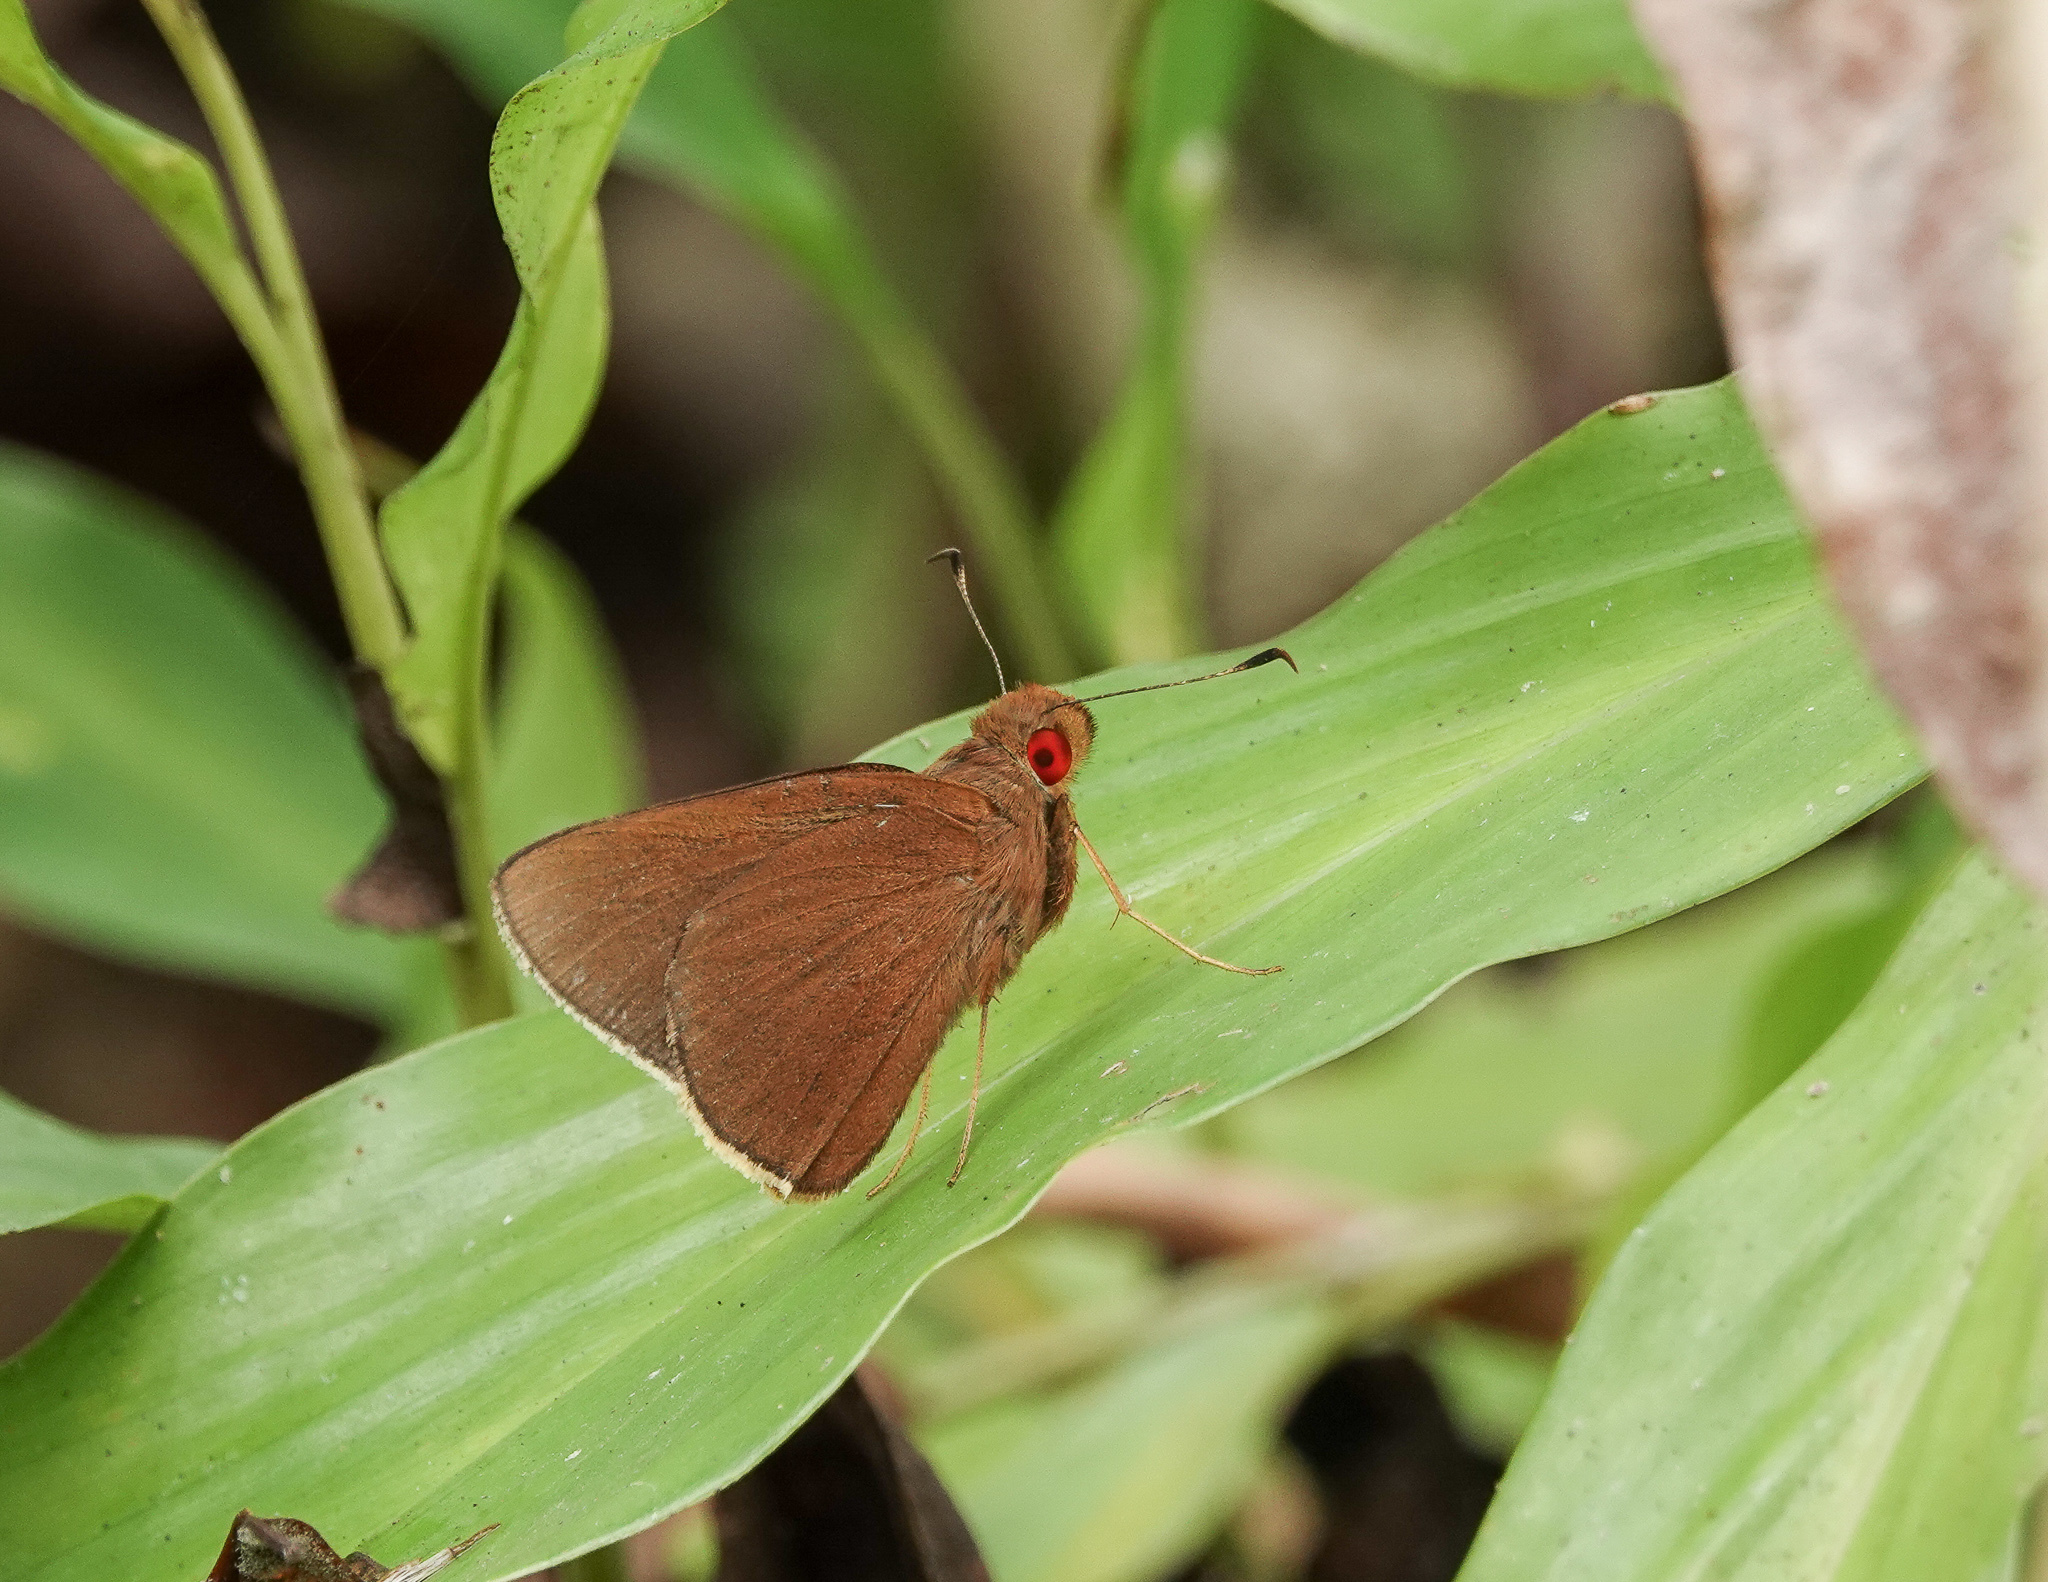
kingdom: Animalia
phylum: Arthropoda
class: Insecta
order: Lepidoptera
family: Hesperiidae
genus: Matapa
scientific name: Matapa aria
